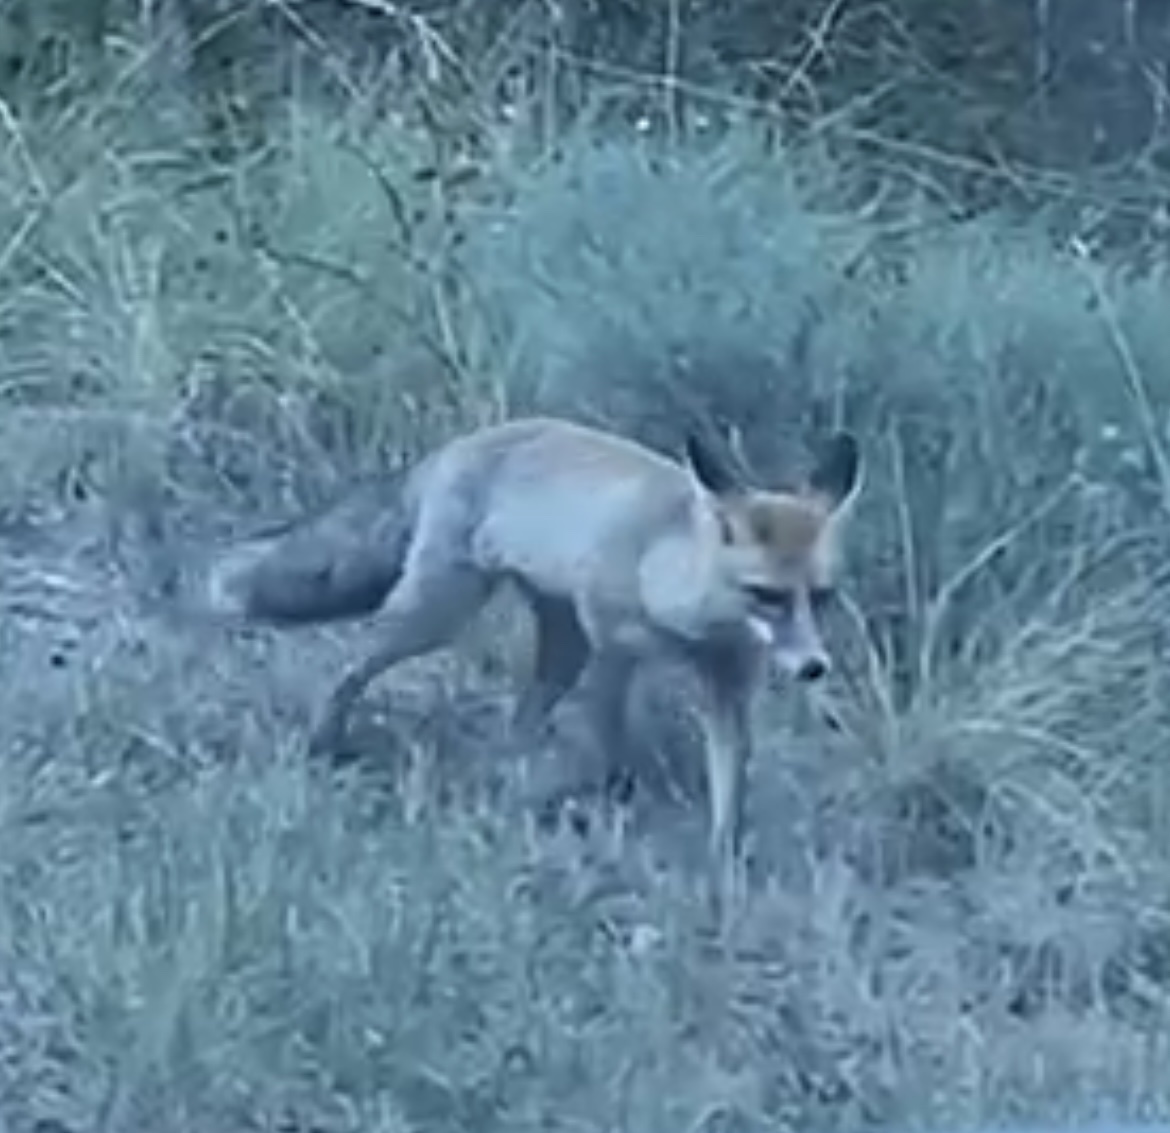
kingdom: Animalia
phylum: Chordata
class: Mammalia
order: Carnivora
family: Canidae
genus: Vulpes
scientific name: Vulpes vulpes
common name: Red fox
